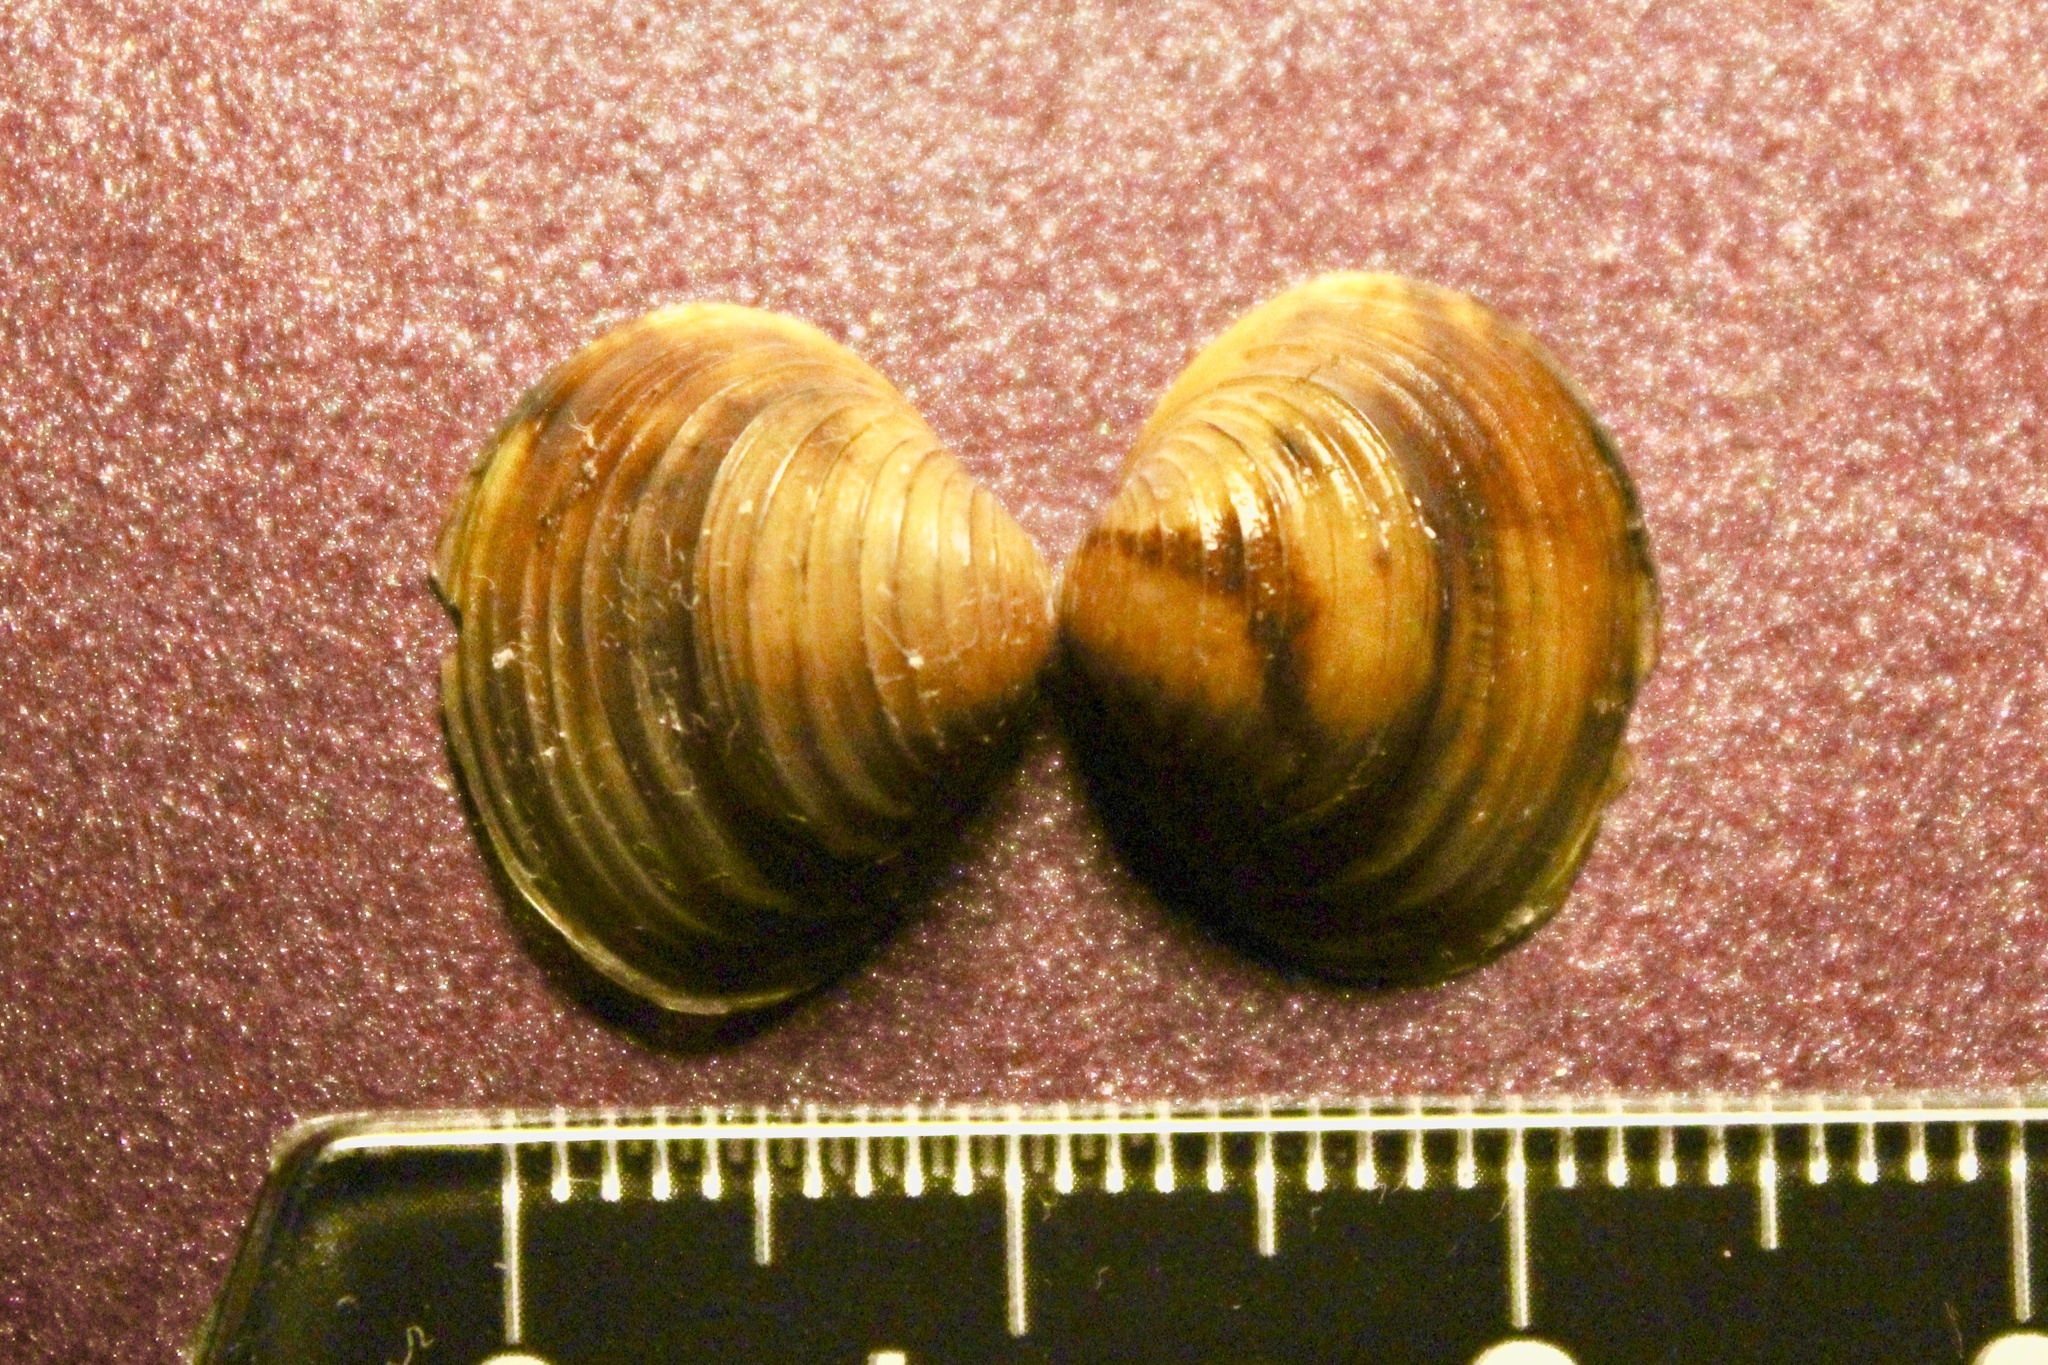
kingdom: Animalia
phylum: Mollusca
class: Bivalvia
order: Venerida
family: Cyrenidae
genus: Corbicula
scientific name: Corbicula fluminea
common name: Asian clam
